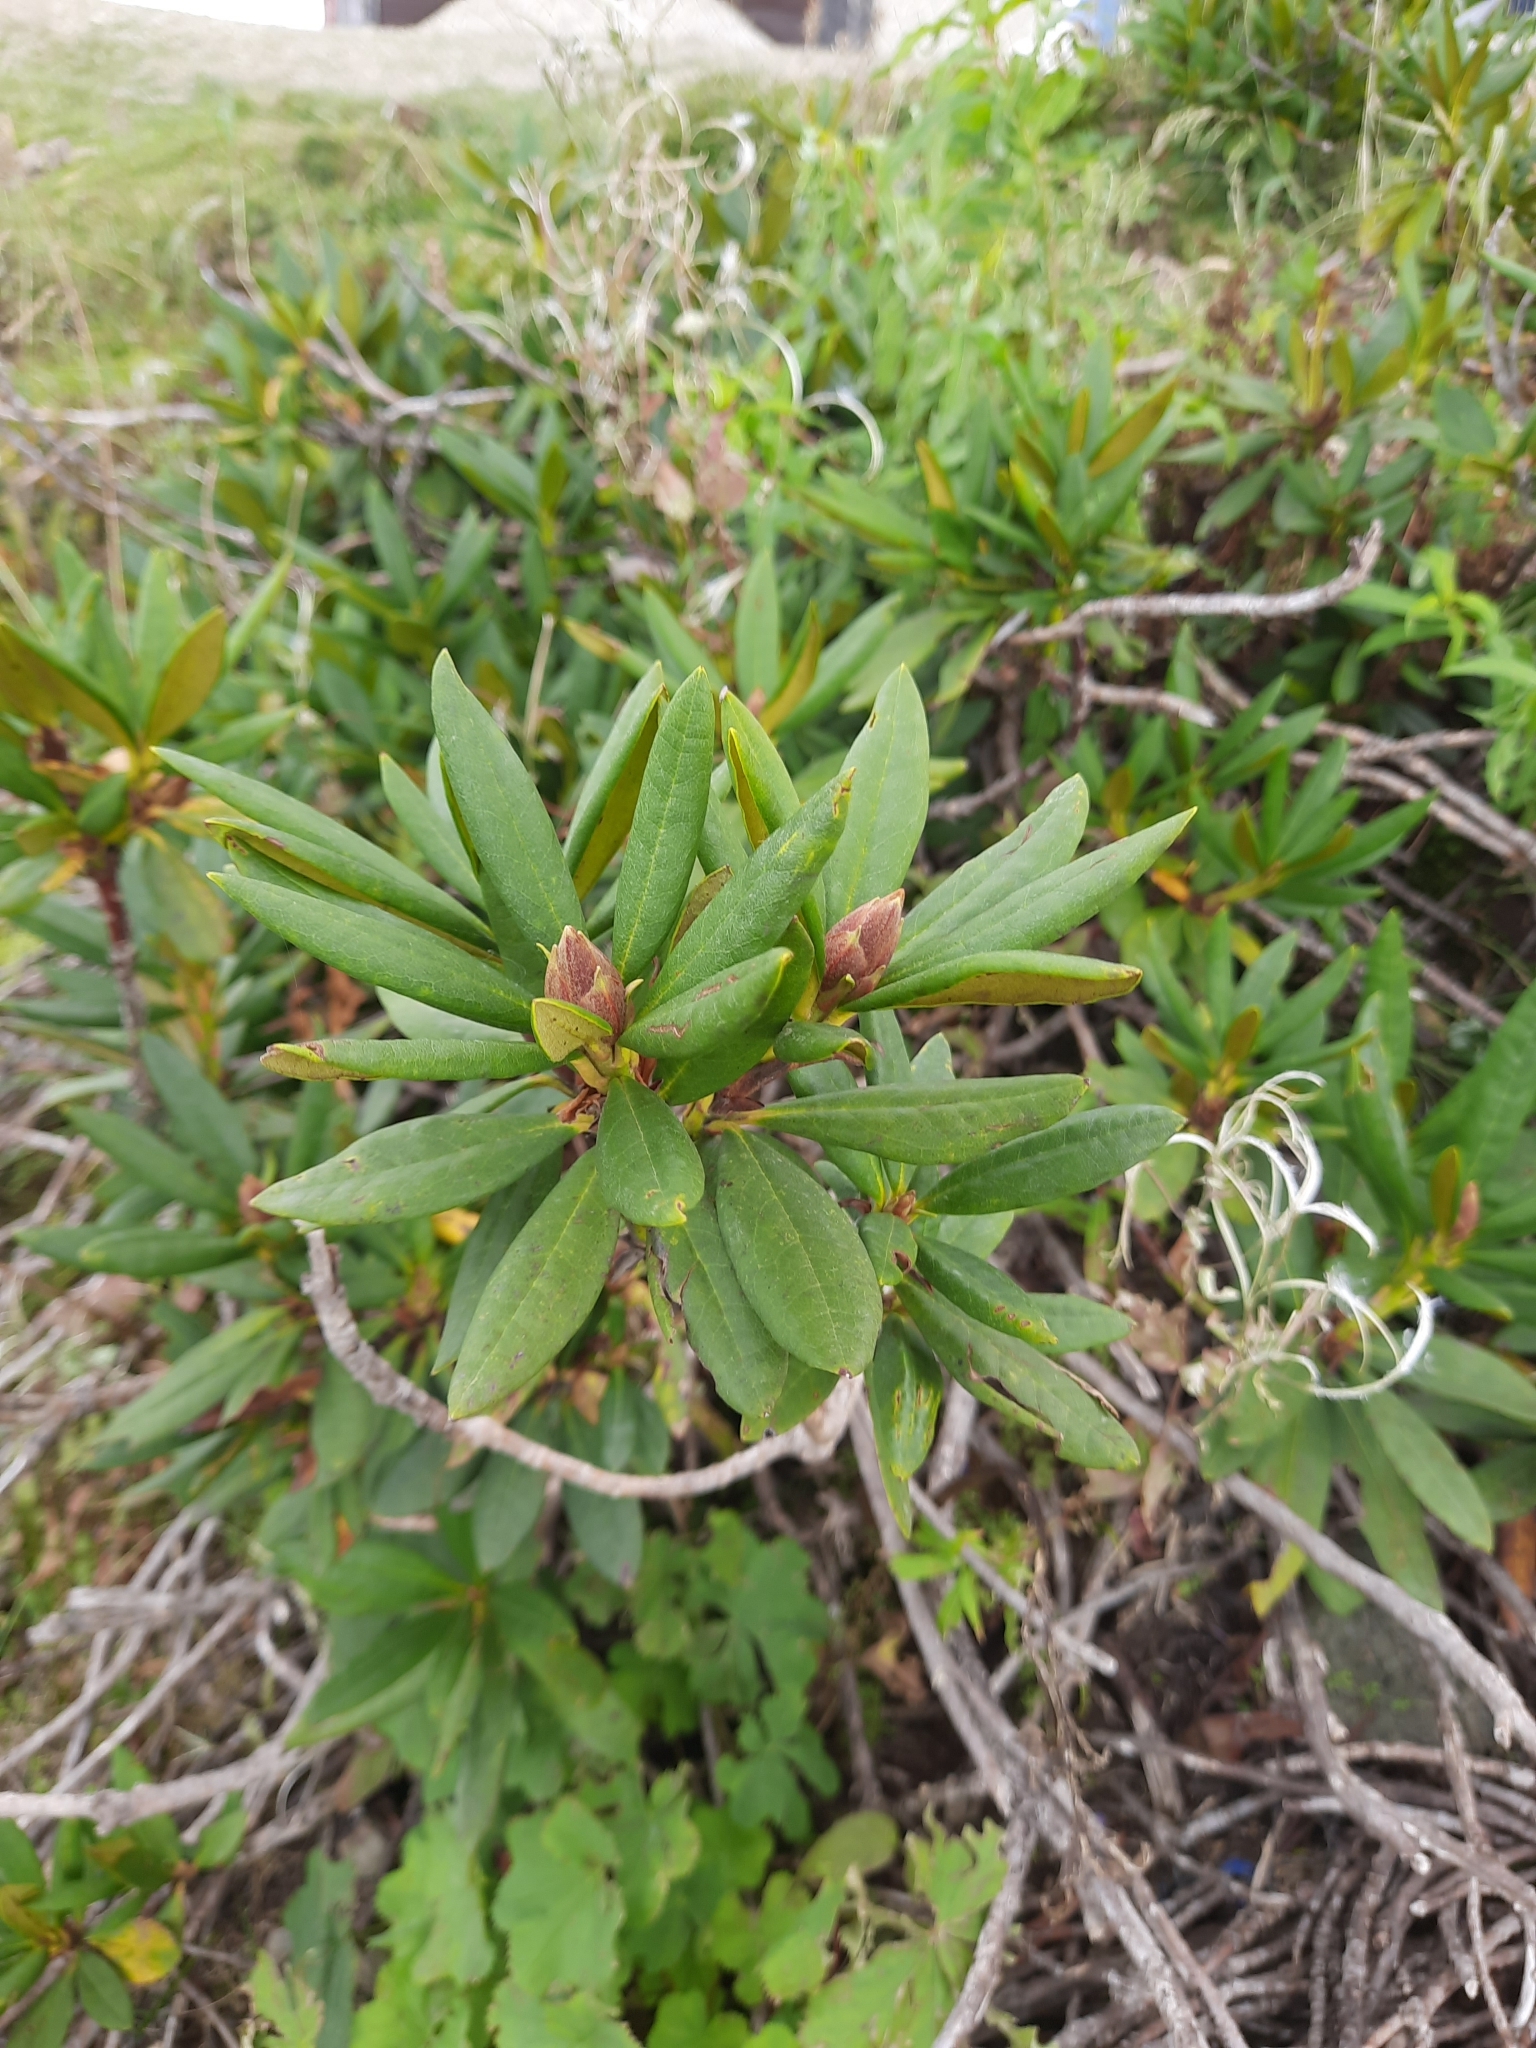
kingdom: Plantae
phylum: Tracheophyta
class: Magnoliopsida
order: Ericales
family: Ericaceae
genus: Rhododendron
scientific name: Rhododendron caucasicum
